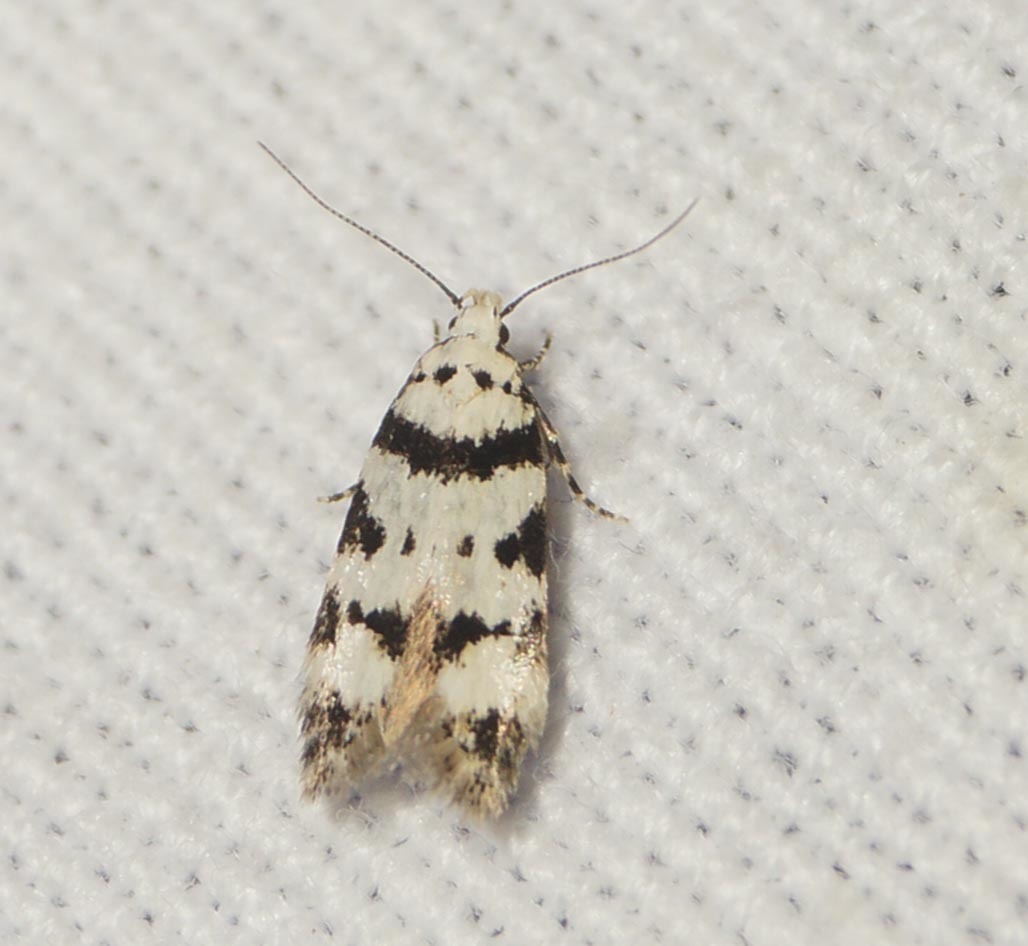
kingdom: Animalia
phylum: Arthropoda
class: Insecta
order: Lepidoptera
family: Gelechiidae
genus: Pseudotelphusa
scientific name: Pseudotelphusa scalella
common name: Black-spotted groundling
